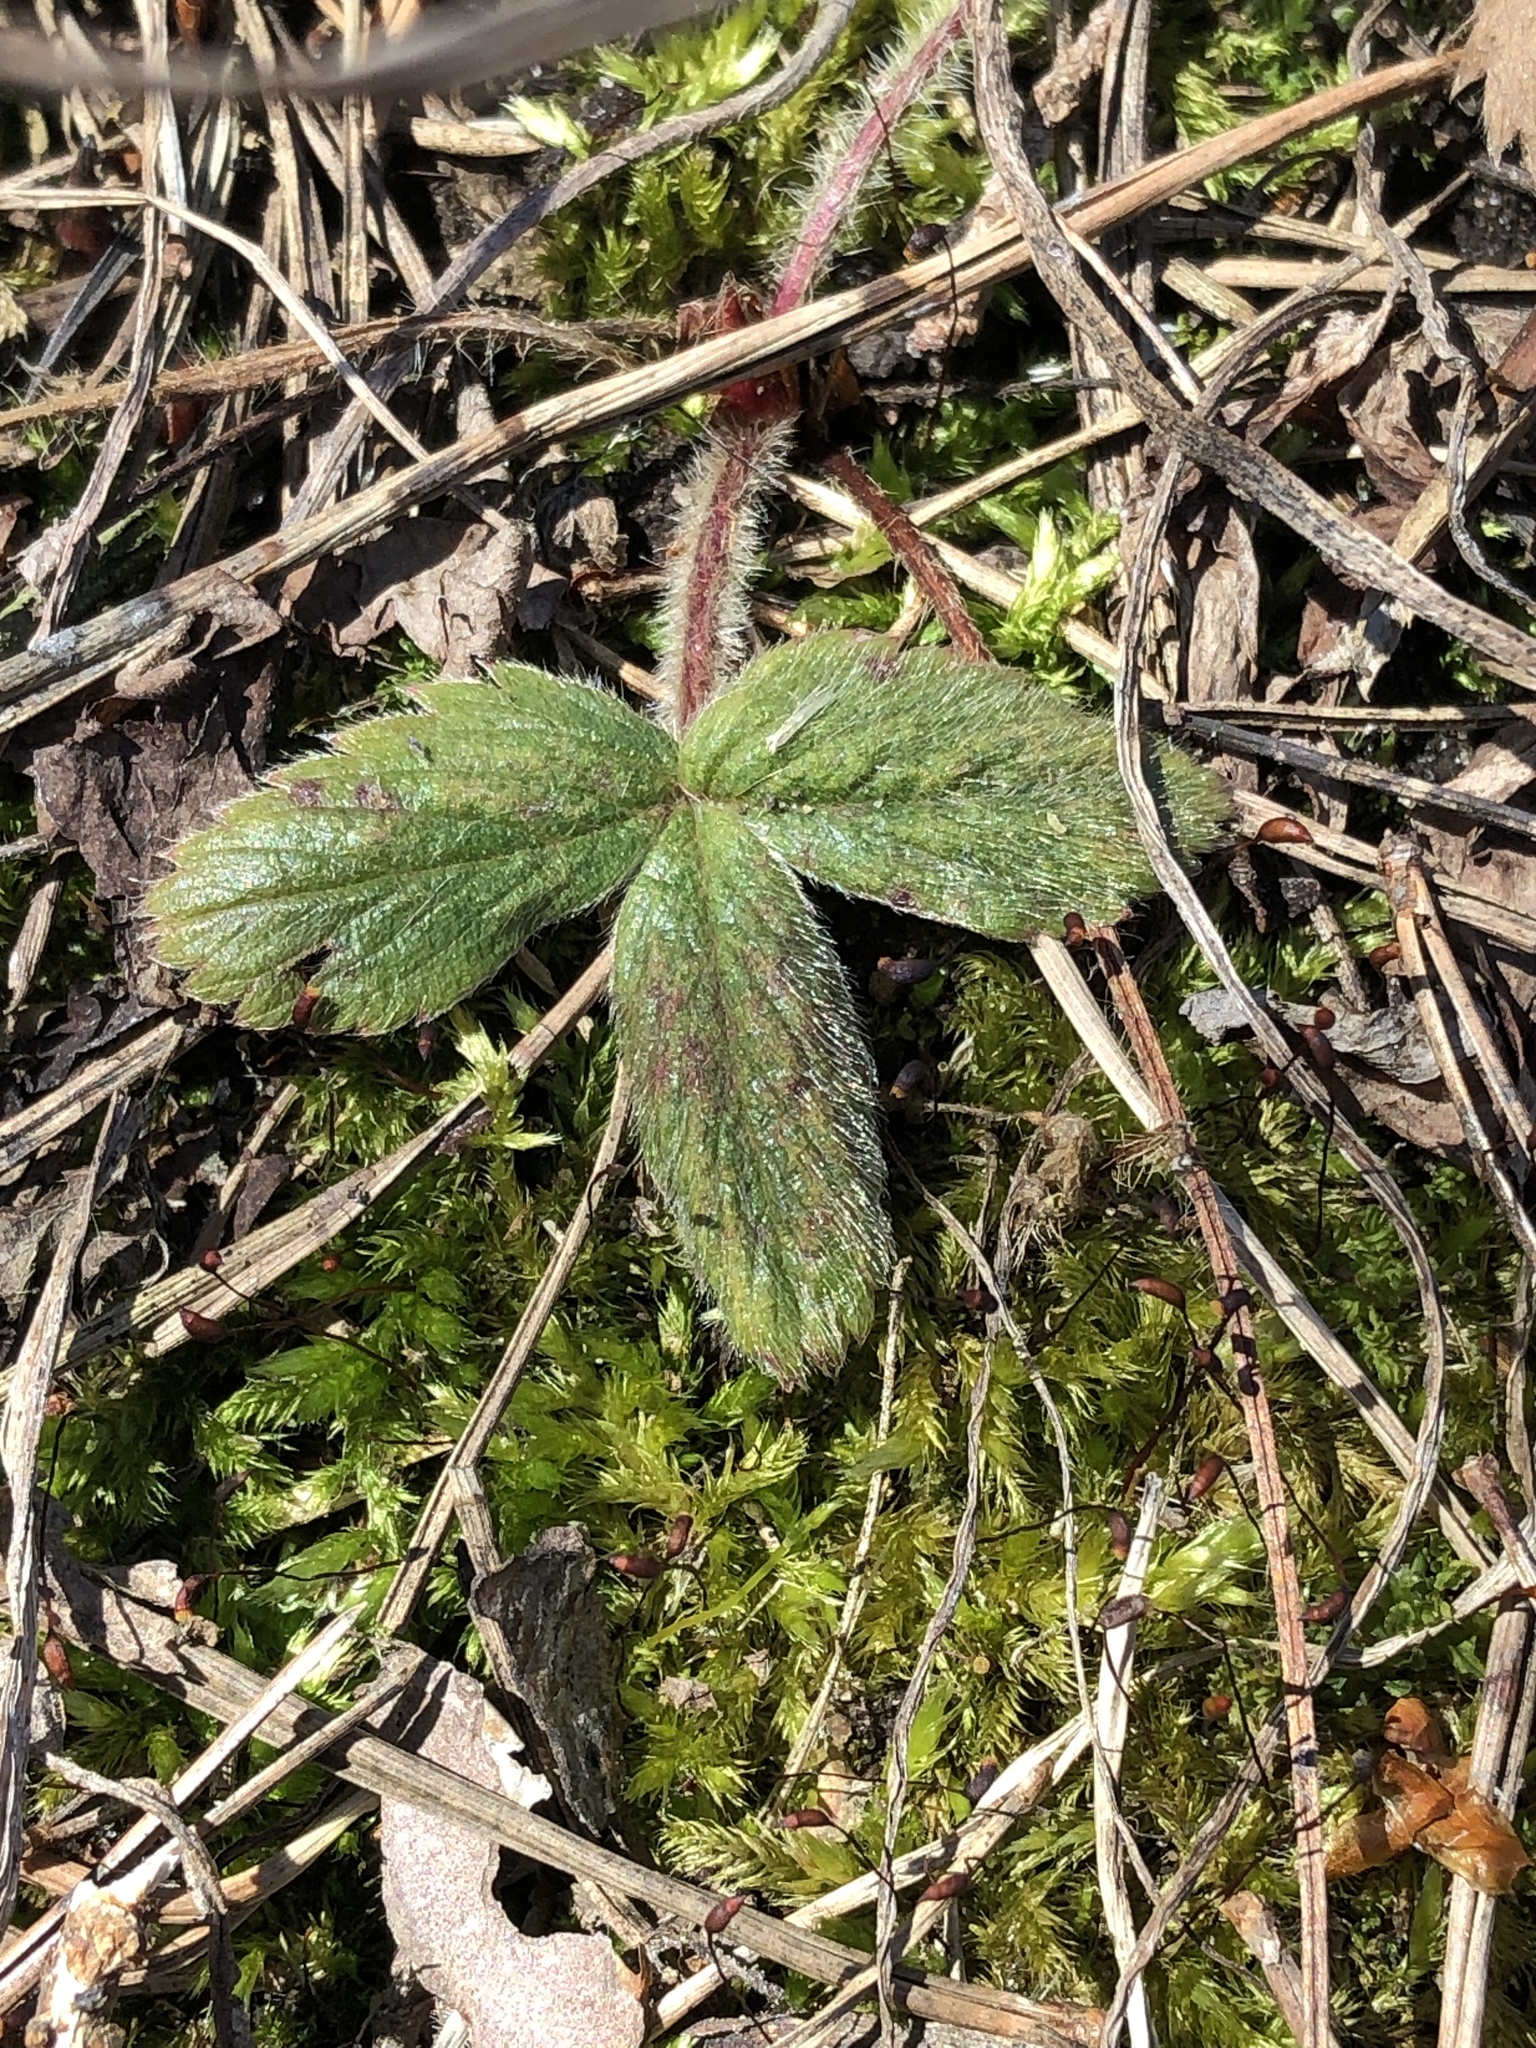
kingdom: Plantae
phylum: Tracheophyta
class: Magnoliopsida
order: Rosales
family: Rosaceae
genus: Fragaria
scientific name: Fragaria virginiana
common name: Thickleaved wild strawberry
